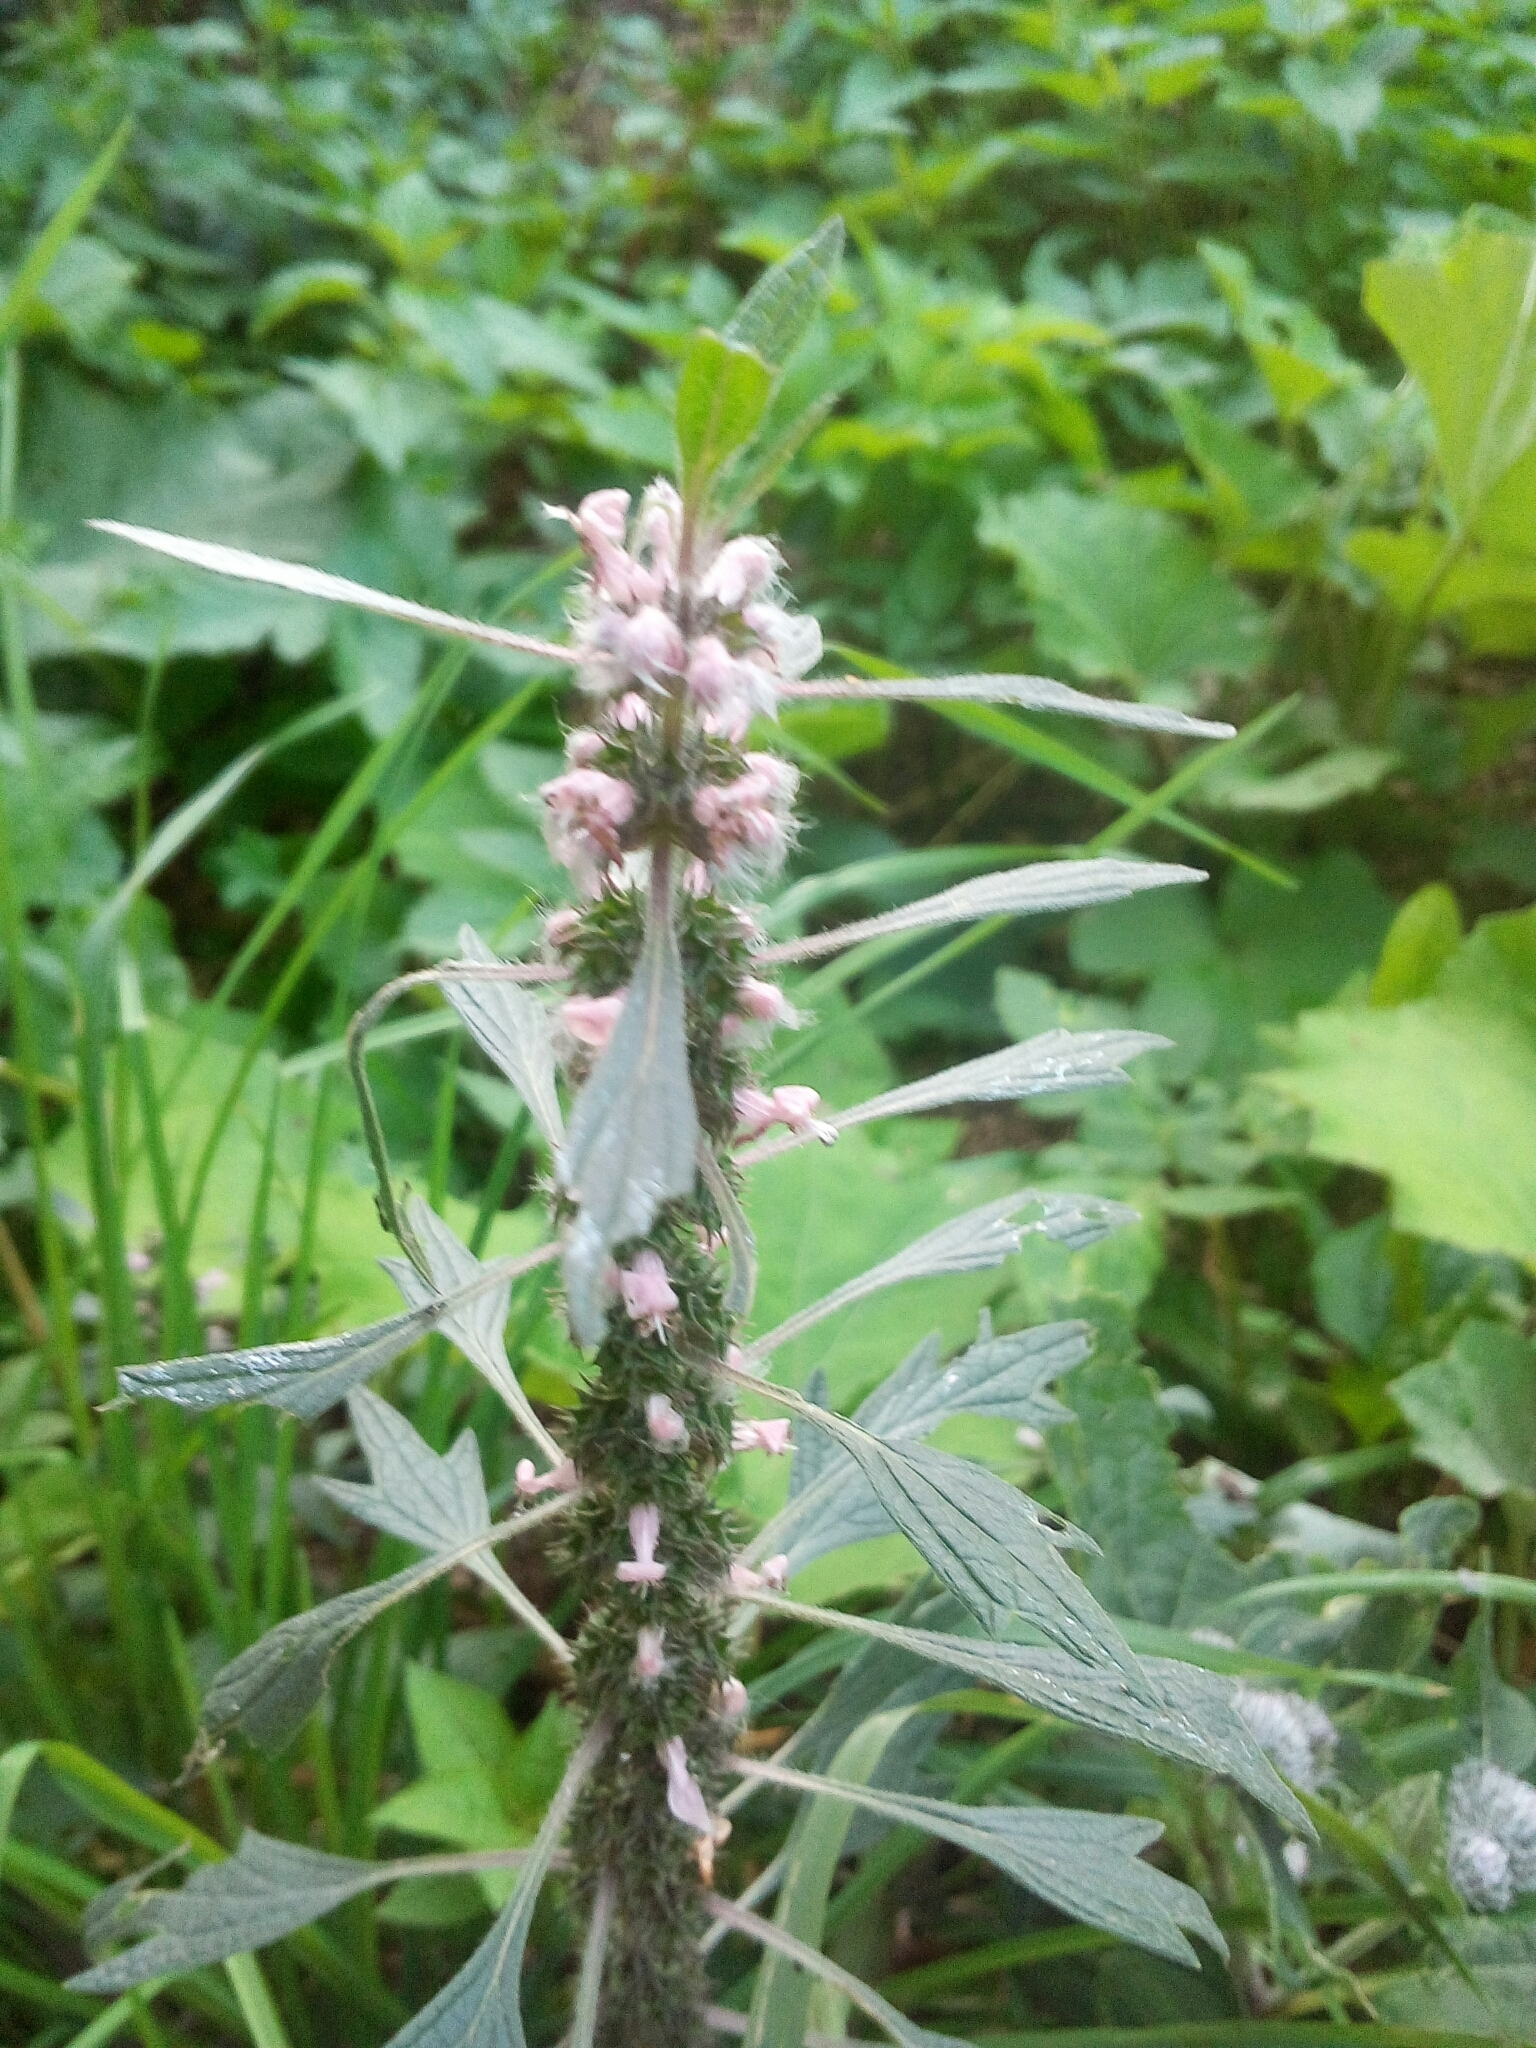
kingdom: Plantae
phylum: Tracheophyta
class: Magnoliopsida
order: Lamiales
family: Lamiaceae
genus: Leonurus
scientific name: Leonurus quinquelobatus
